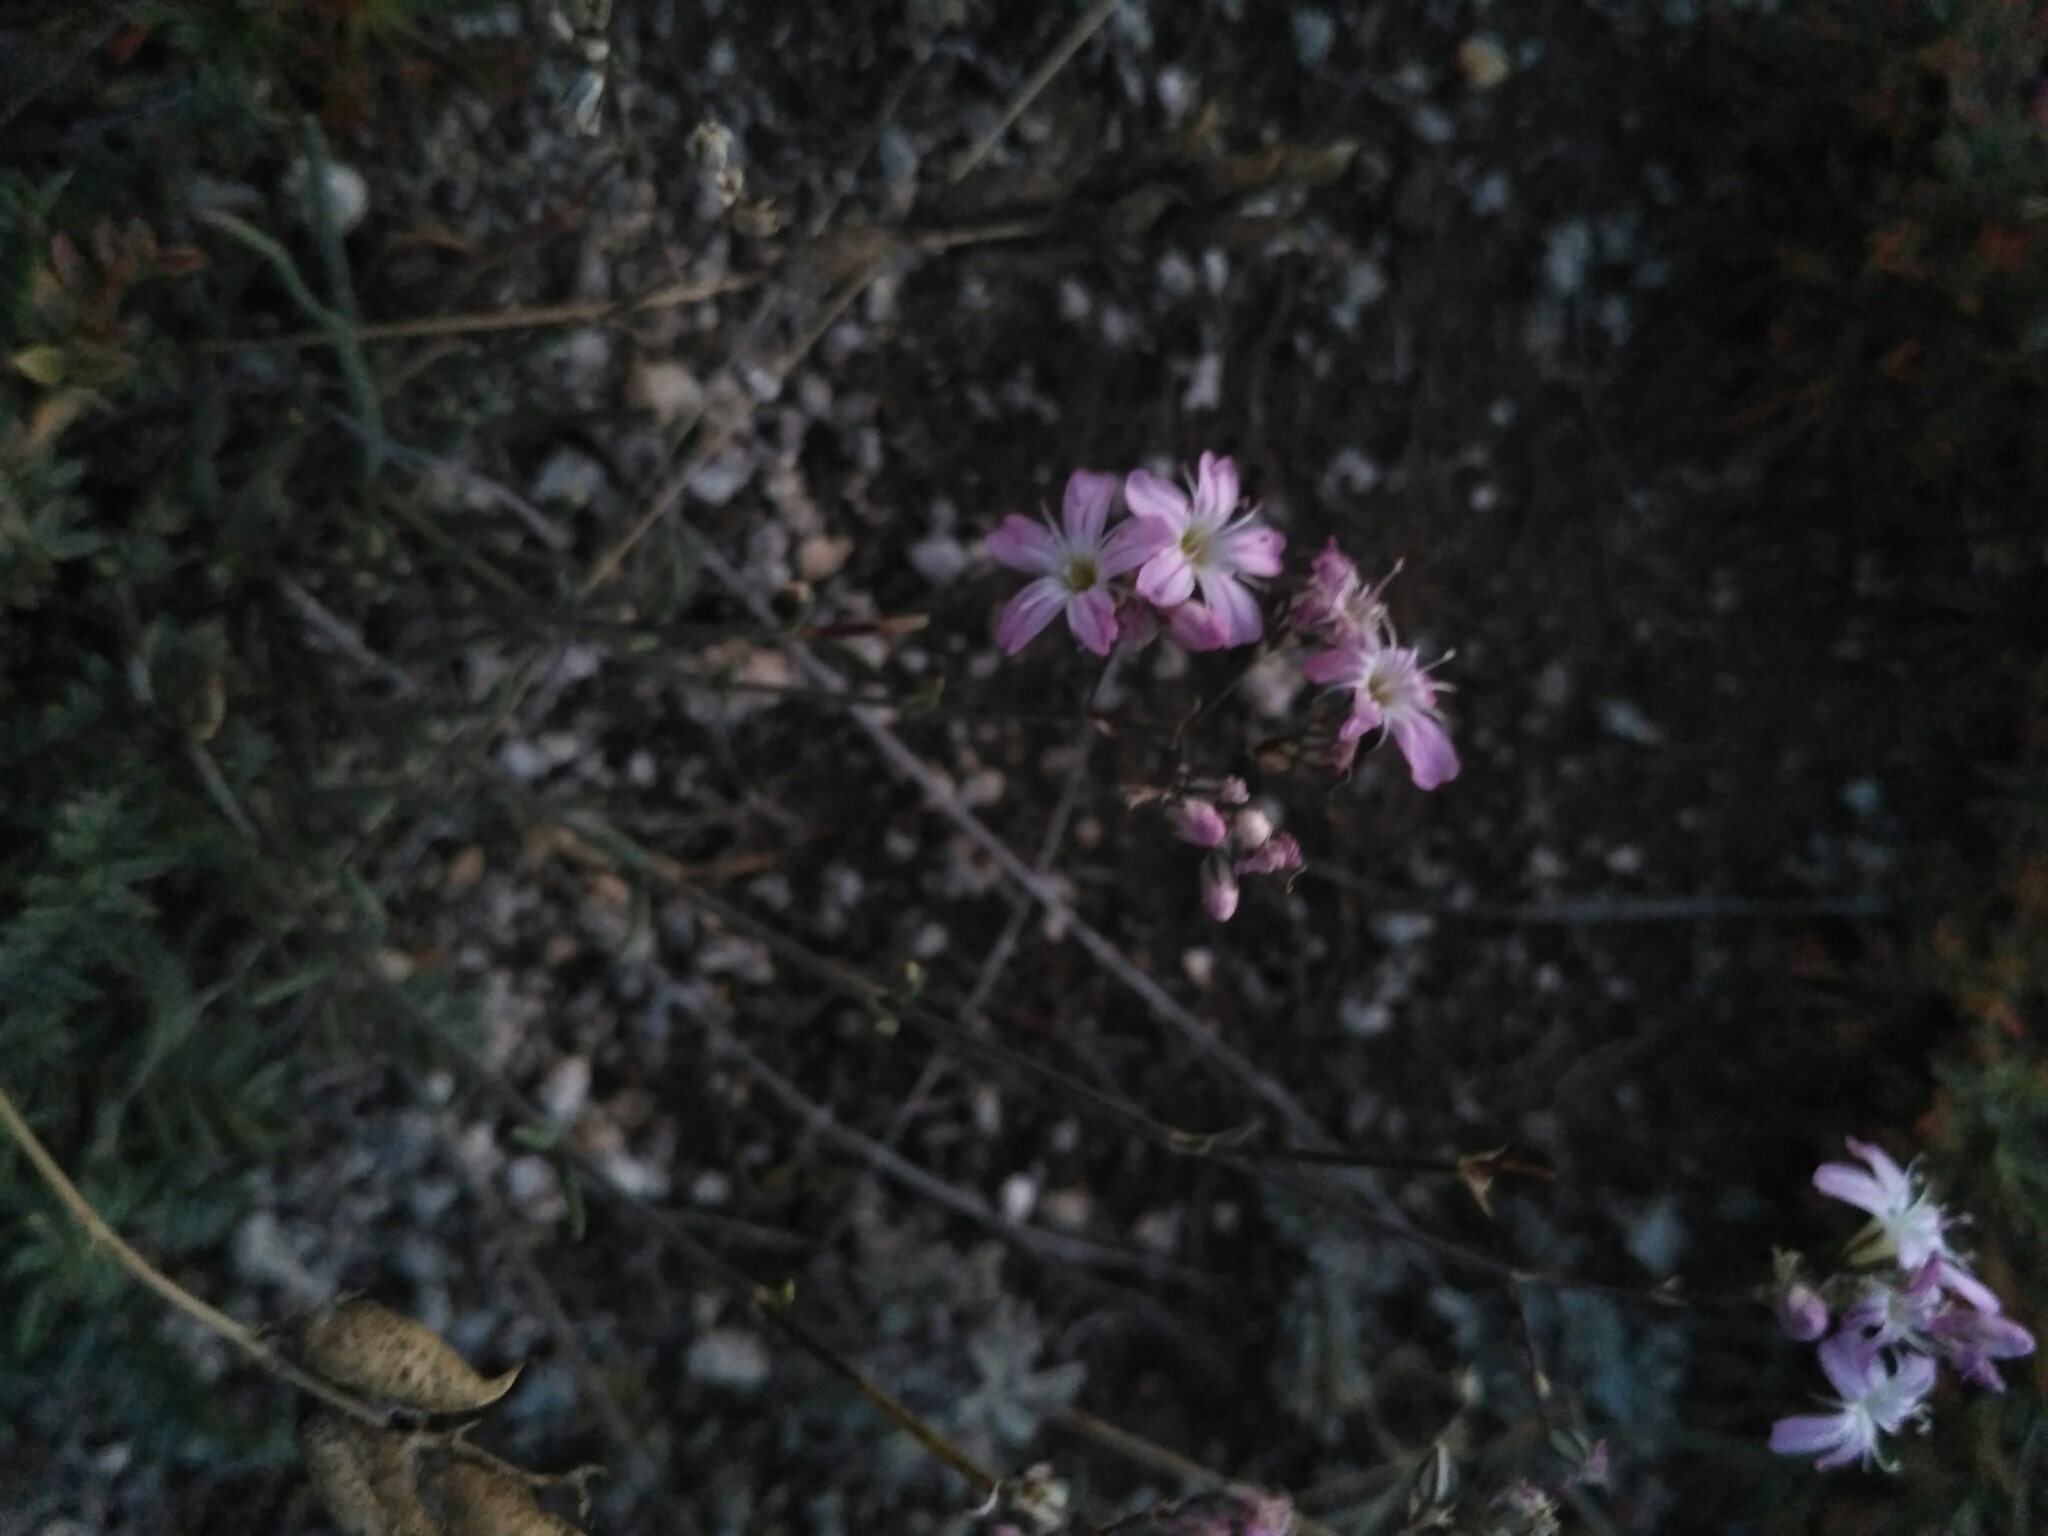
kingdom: Plantae
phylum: Tracheophyta
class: Magnoliopsida
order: Caryophyllales
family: Caryophyllaceae
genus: Gypsophila
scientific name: Gypsophila patrinii
